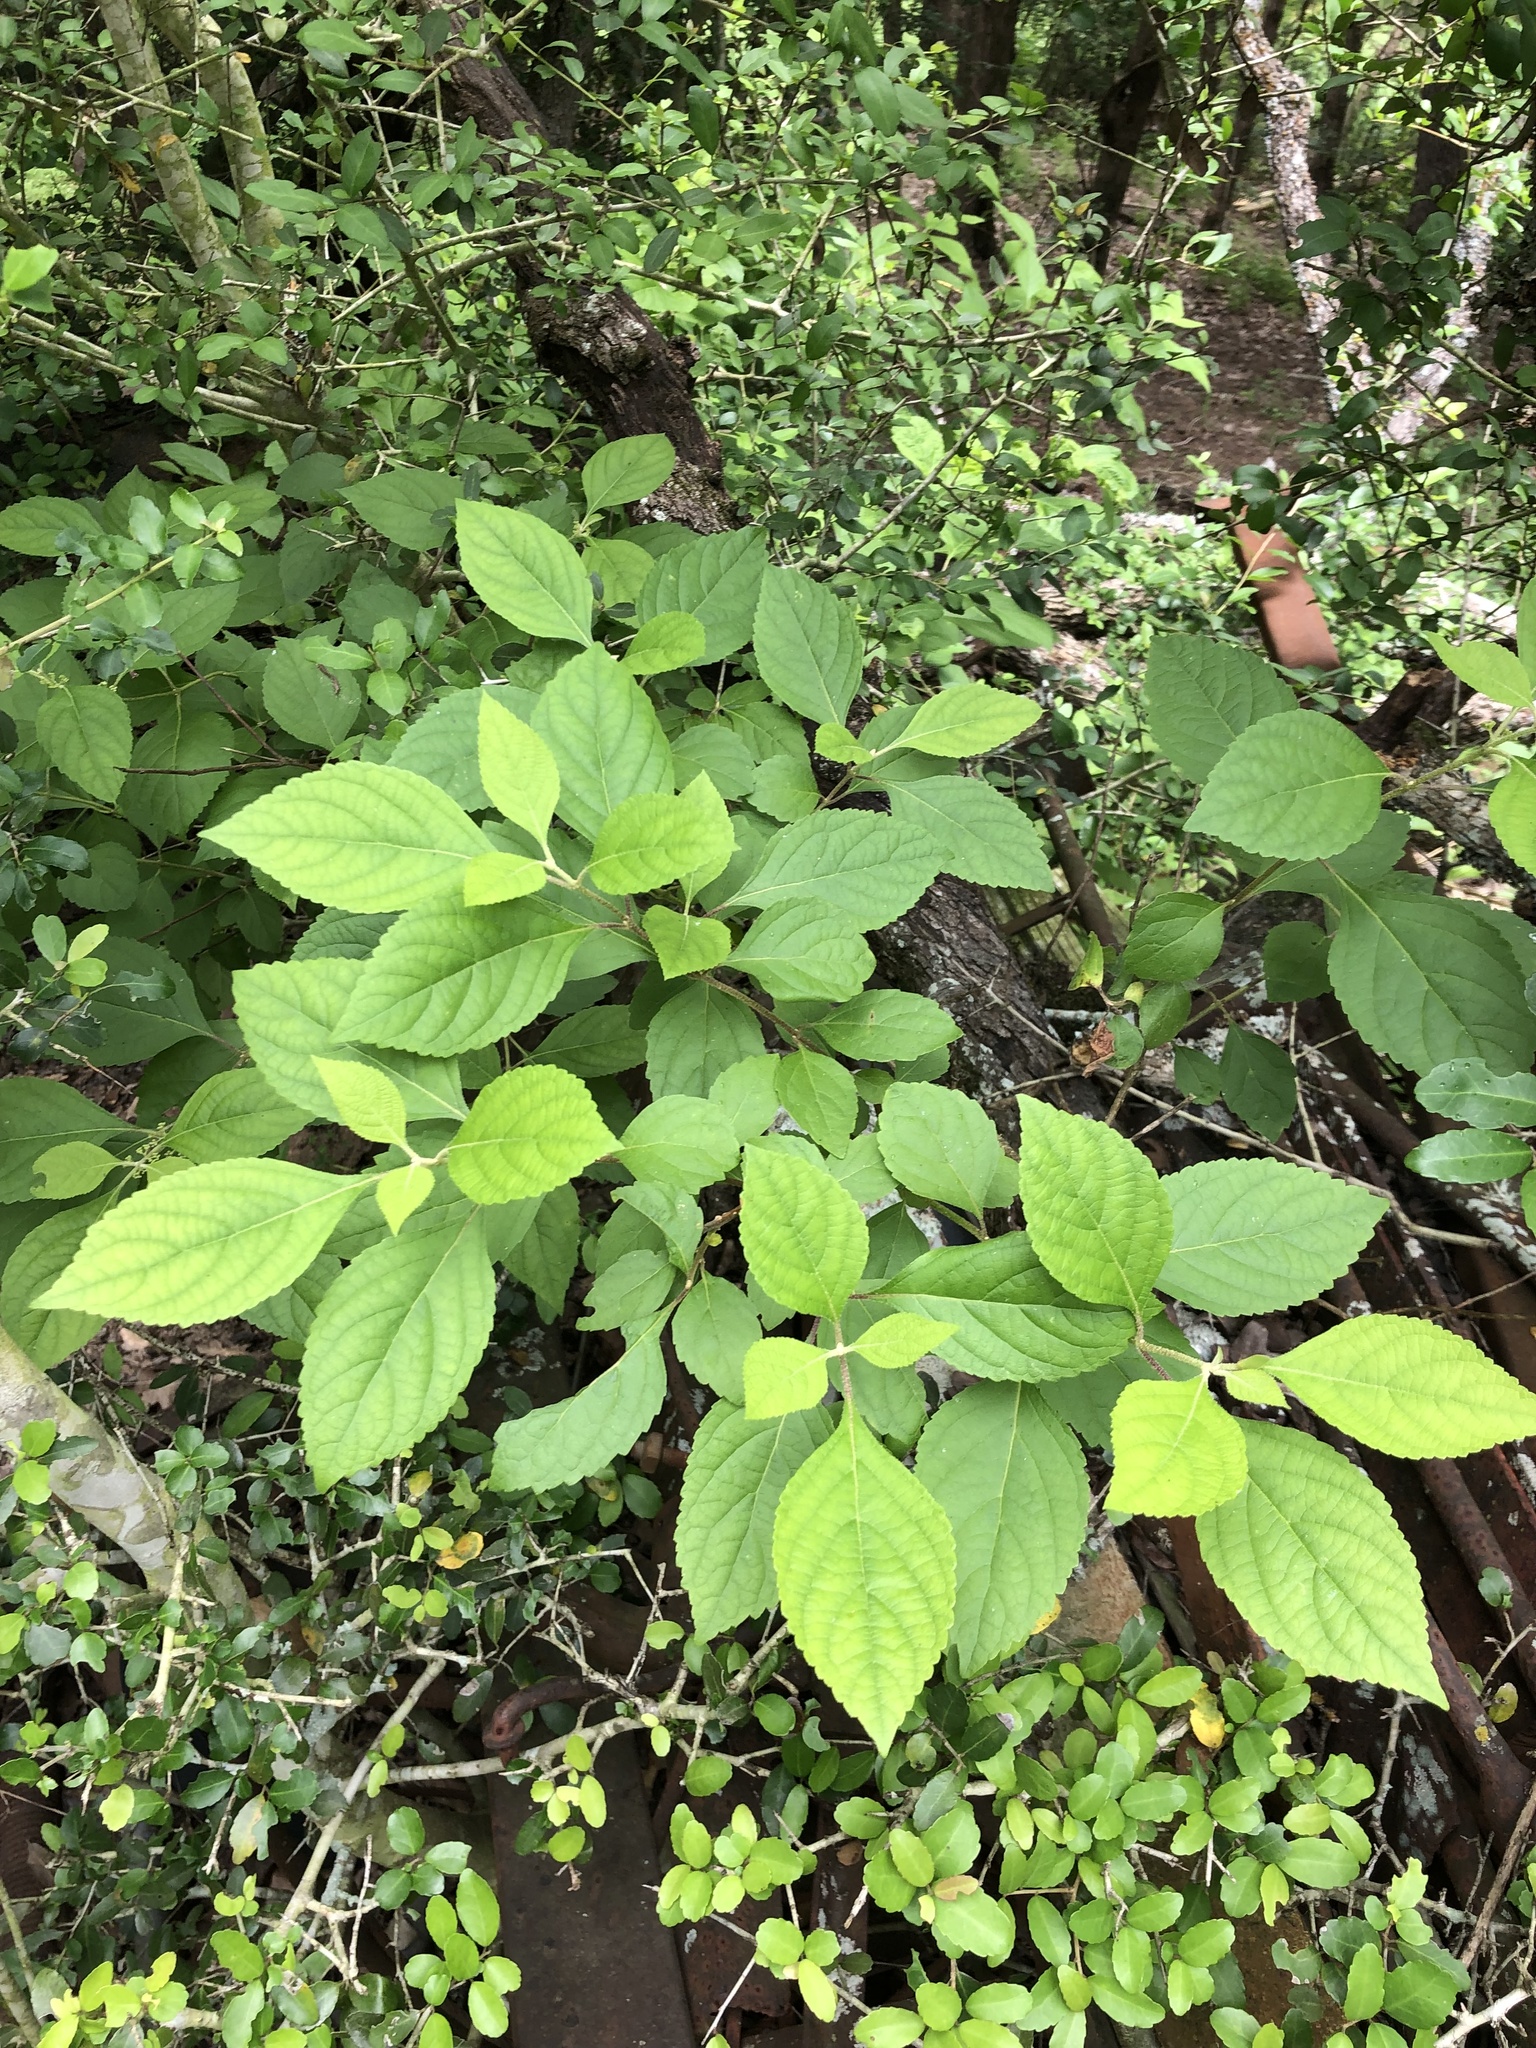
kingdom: Plantae
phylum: Tracheophyta
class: Magnoliopsida
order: Lamiales
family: Lamiaceae
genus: Callicarpa
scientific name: Callicarpa americana
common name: American beautyberry
